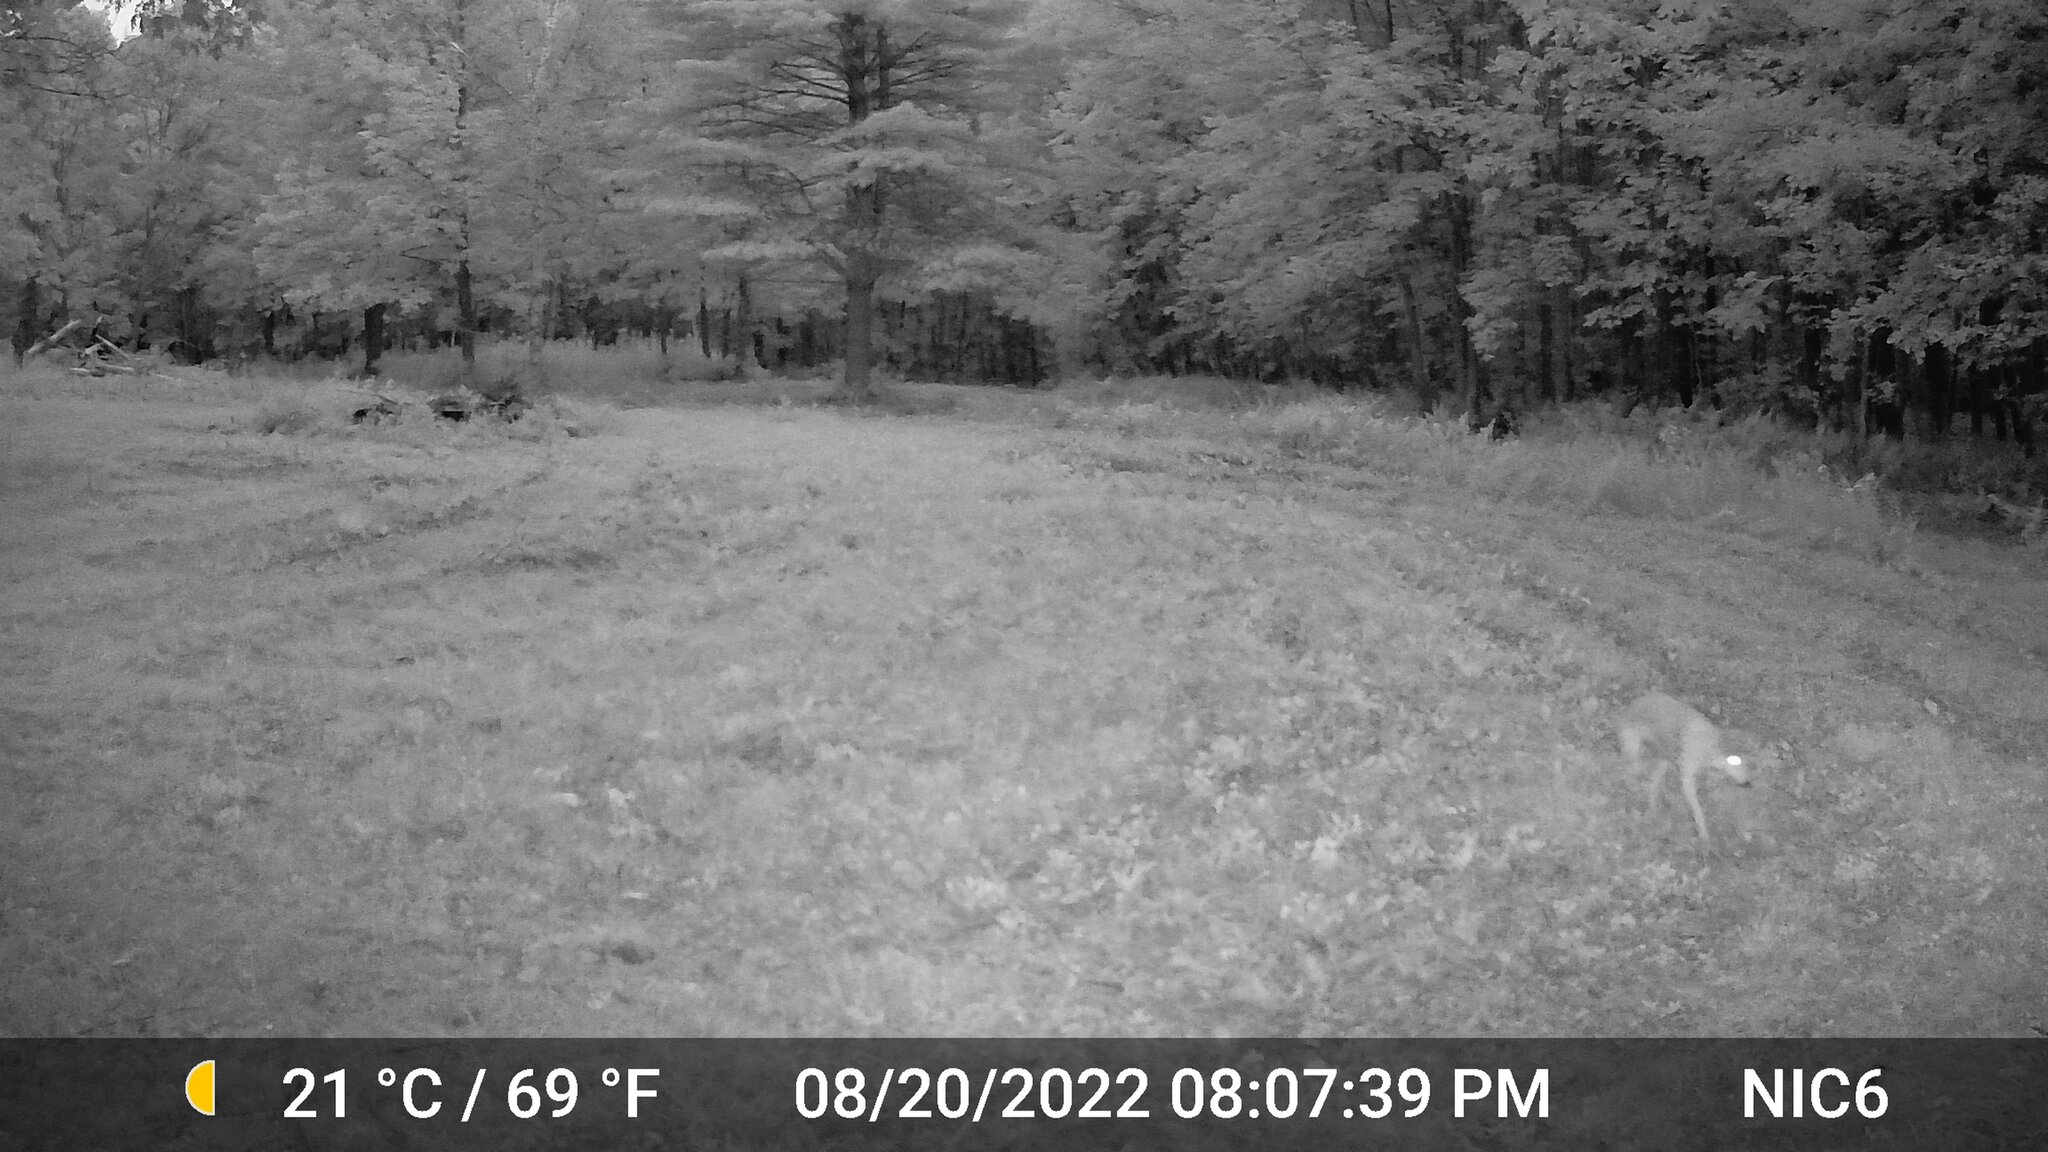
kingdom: Animalia
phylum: Chordata
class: Mammalia
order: Carnivora
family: Canidae
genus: Canis
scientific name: Canis latrans
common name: Coyote
